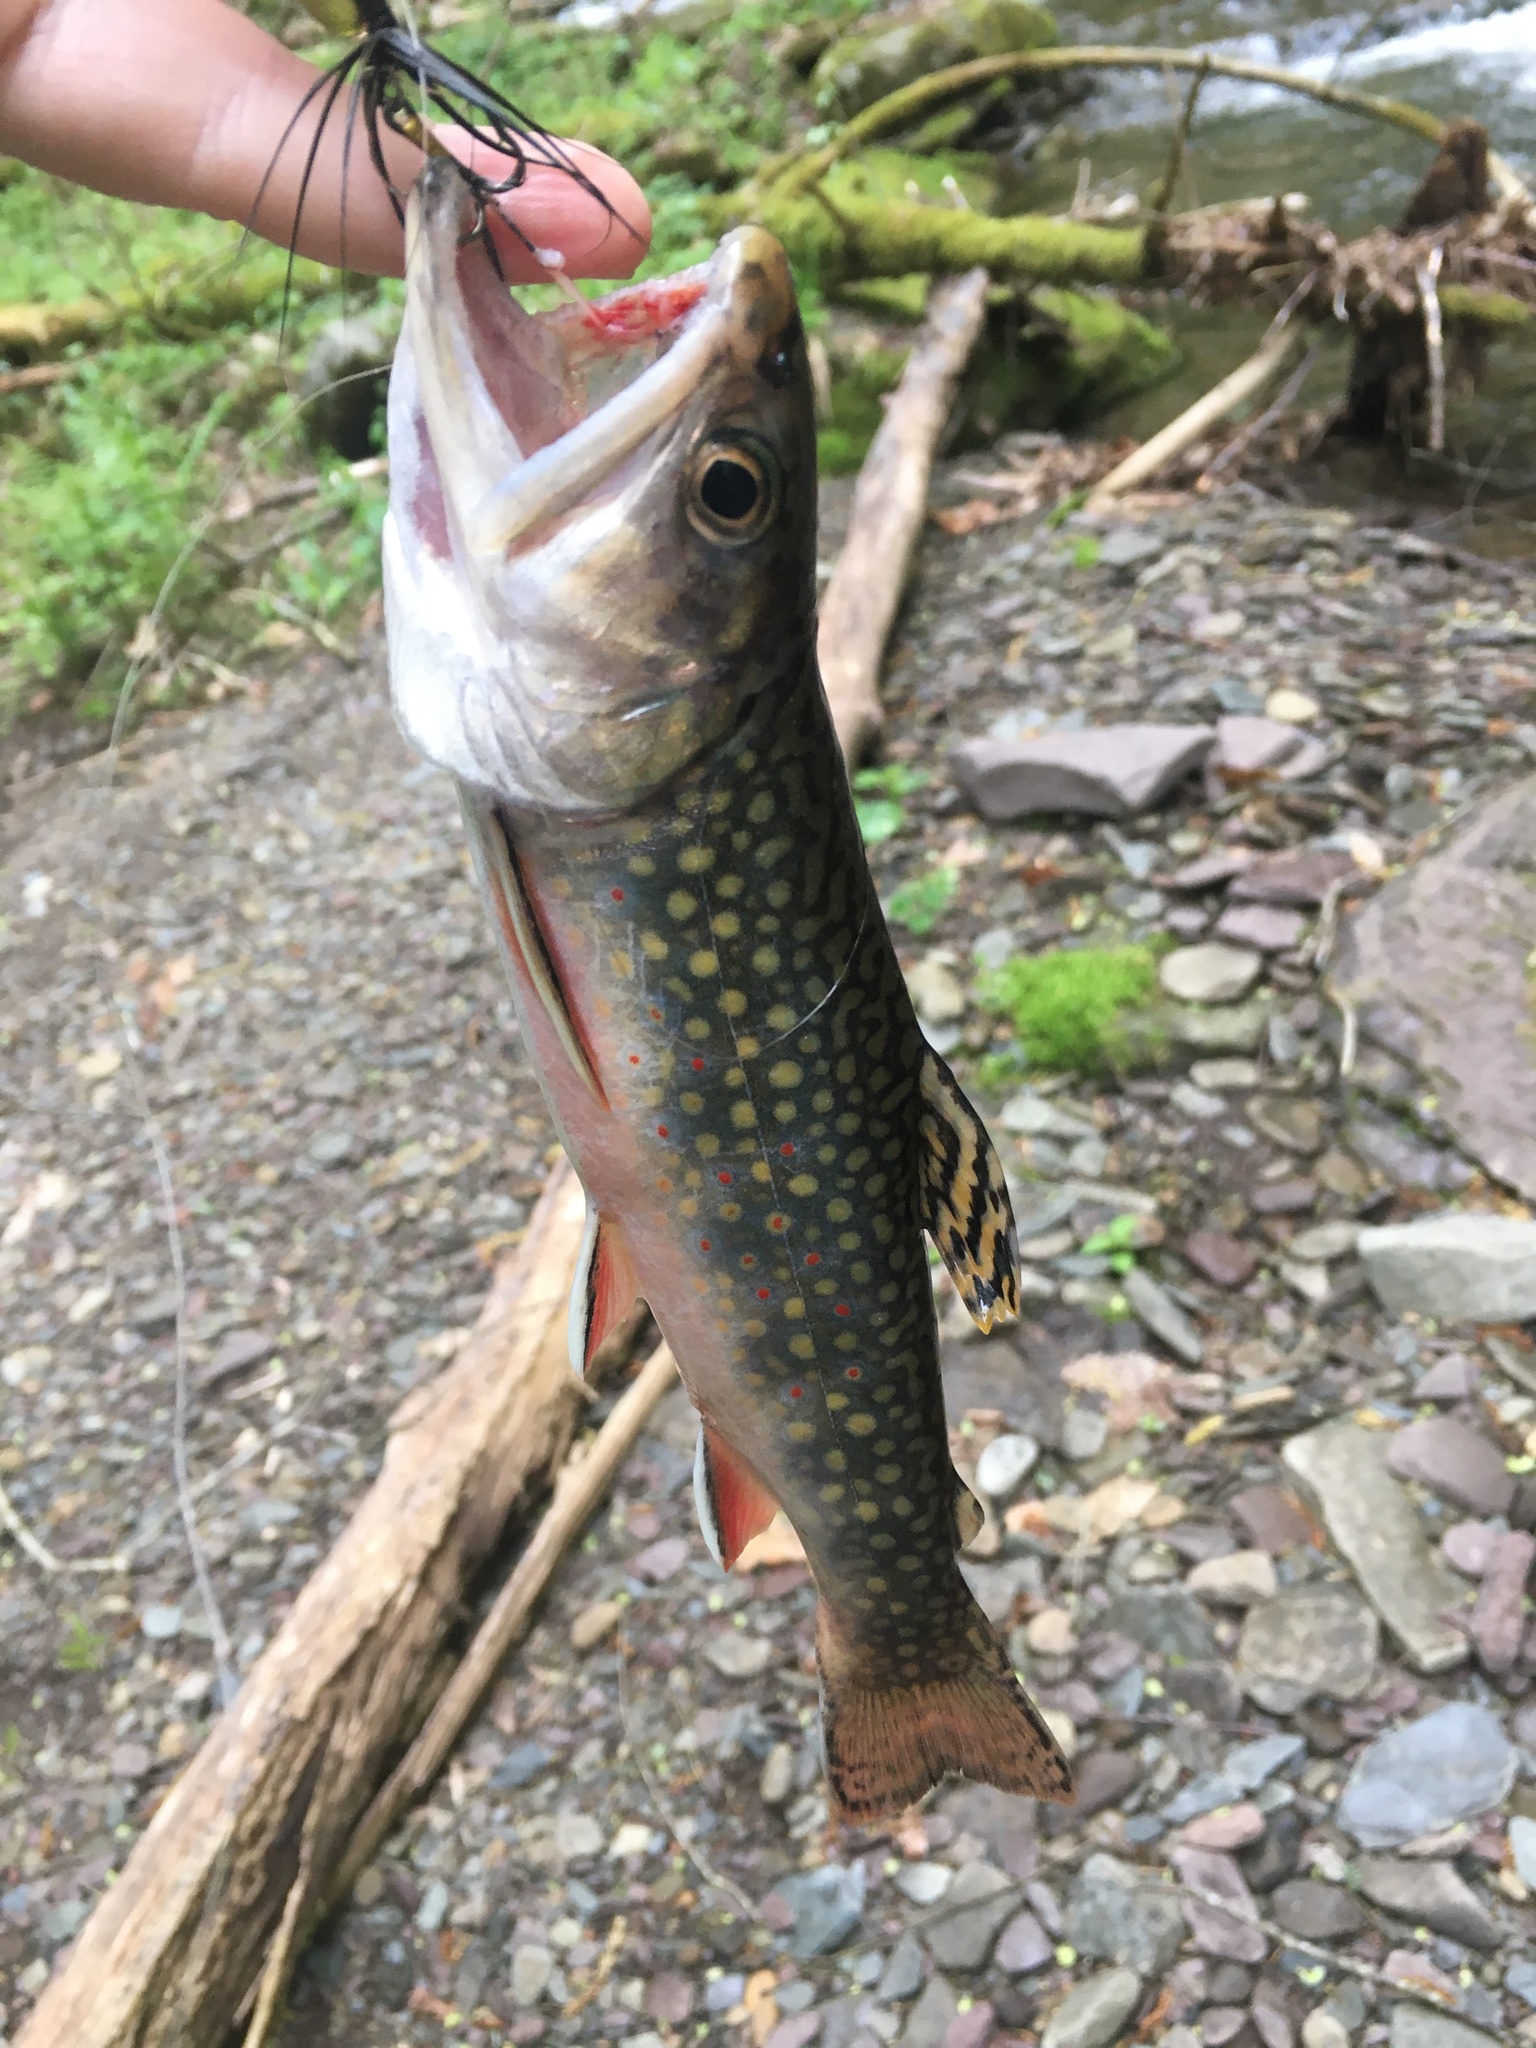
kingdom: Animalia
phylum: Chordata
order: Salmoniformes
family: Salmonidae
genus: Salvelinus
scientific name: Salvelinus fontinalis
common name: Brook trout
